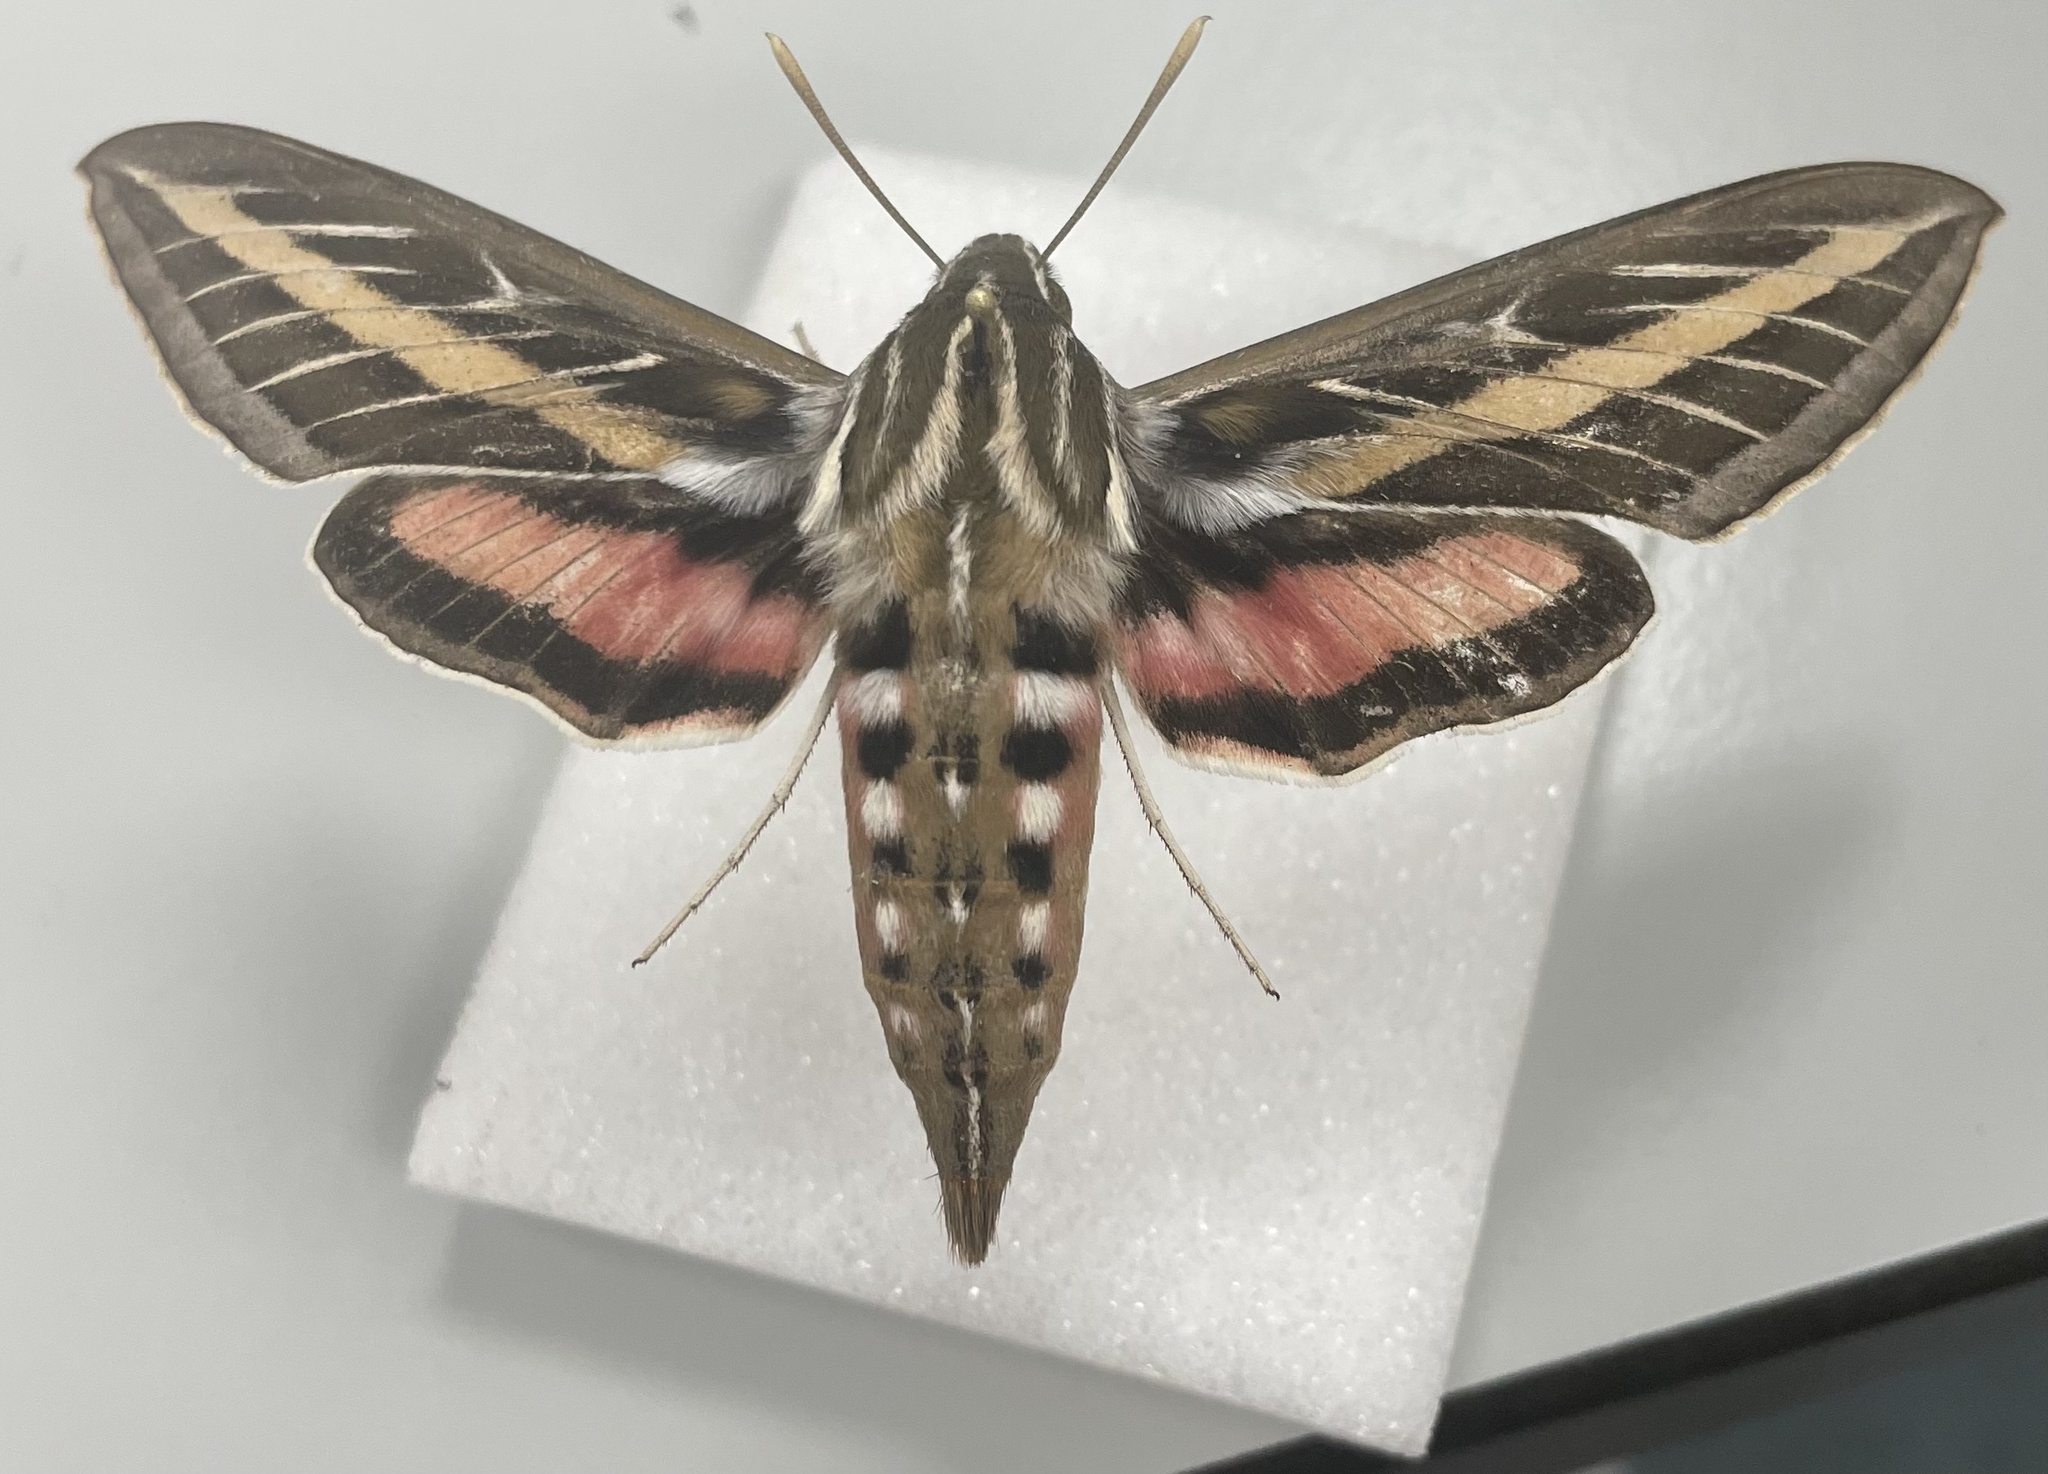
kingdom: Animalia
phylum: Arthropoda
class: Insecta
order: Lepidoptera
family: Sphingidae
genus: Hyles
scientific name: Hyles lineata
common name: White-lined sphinx
